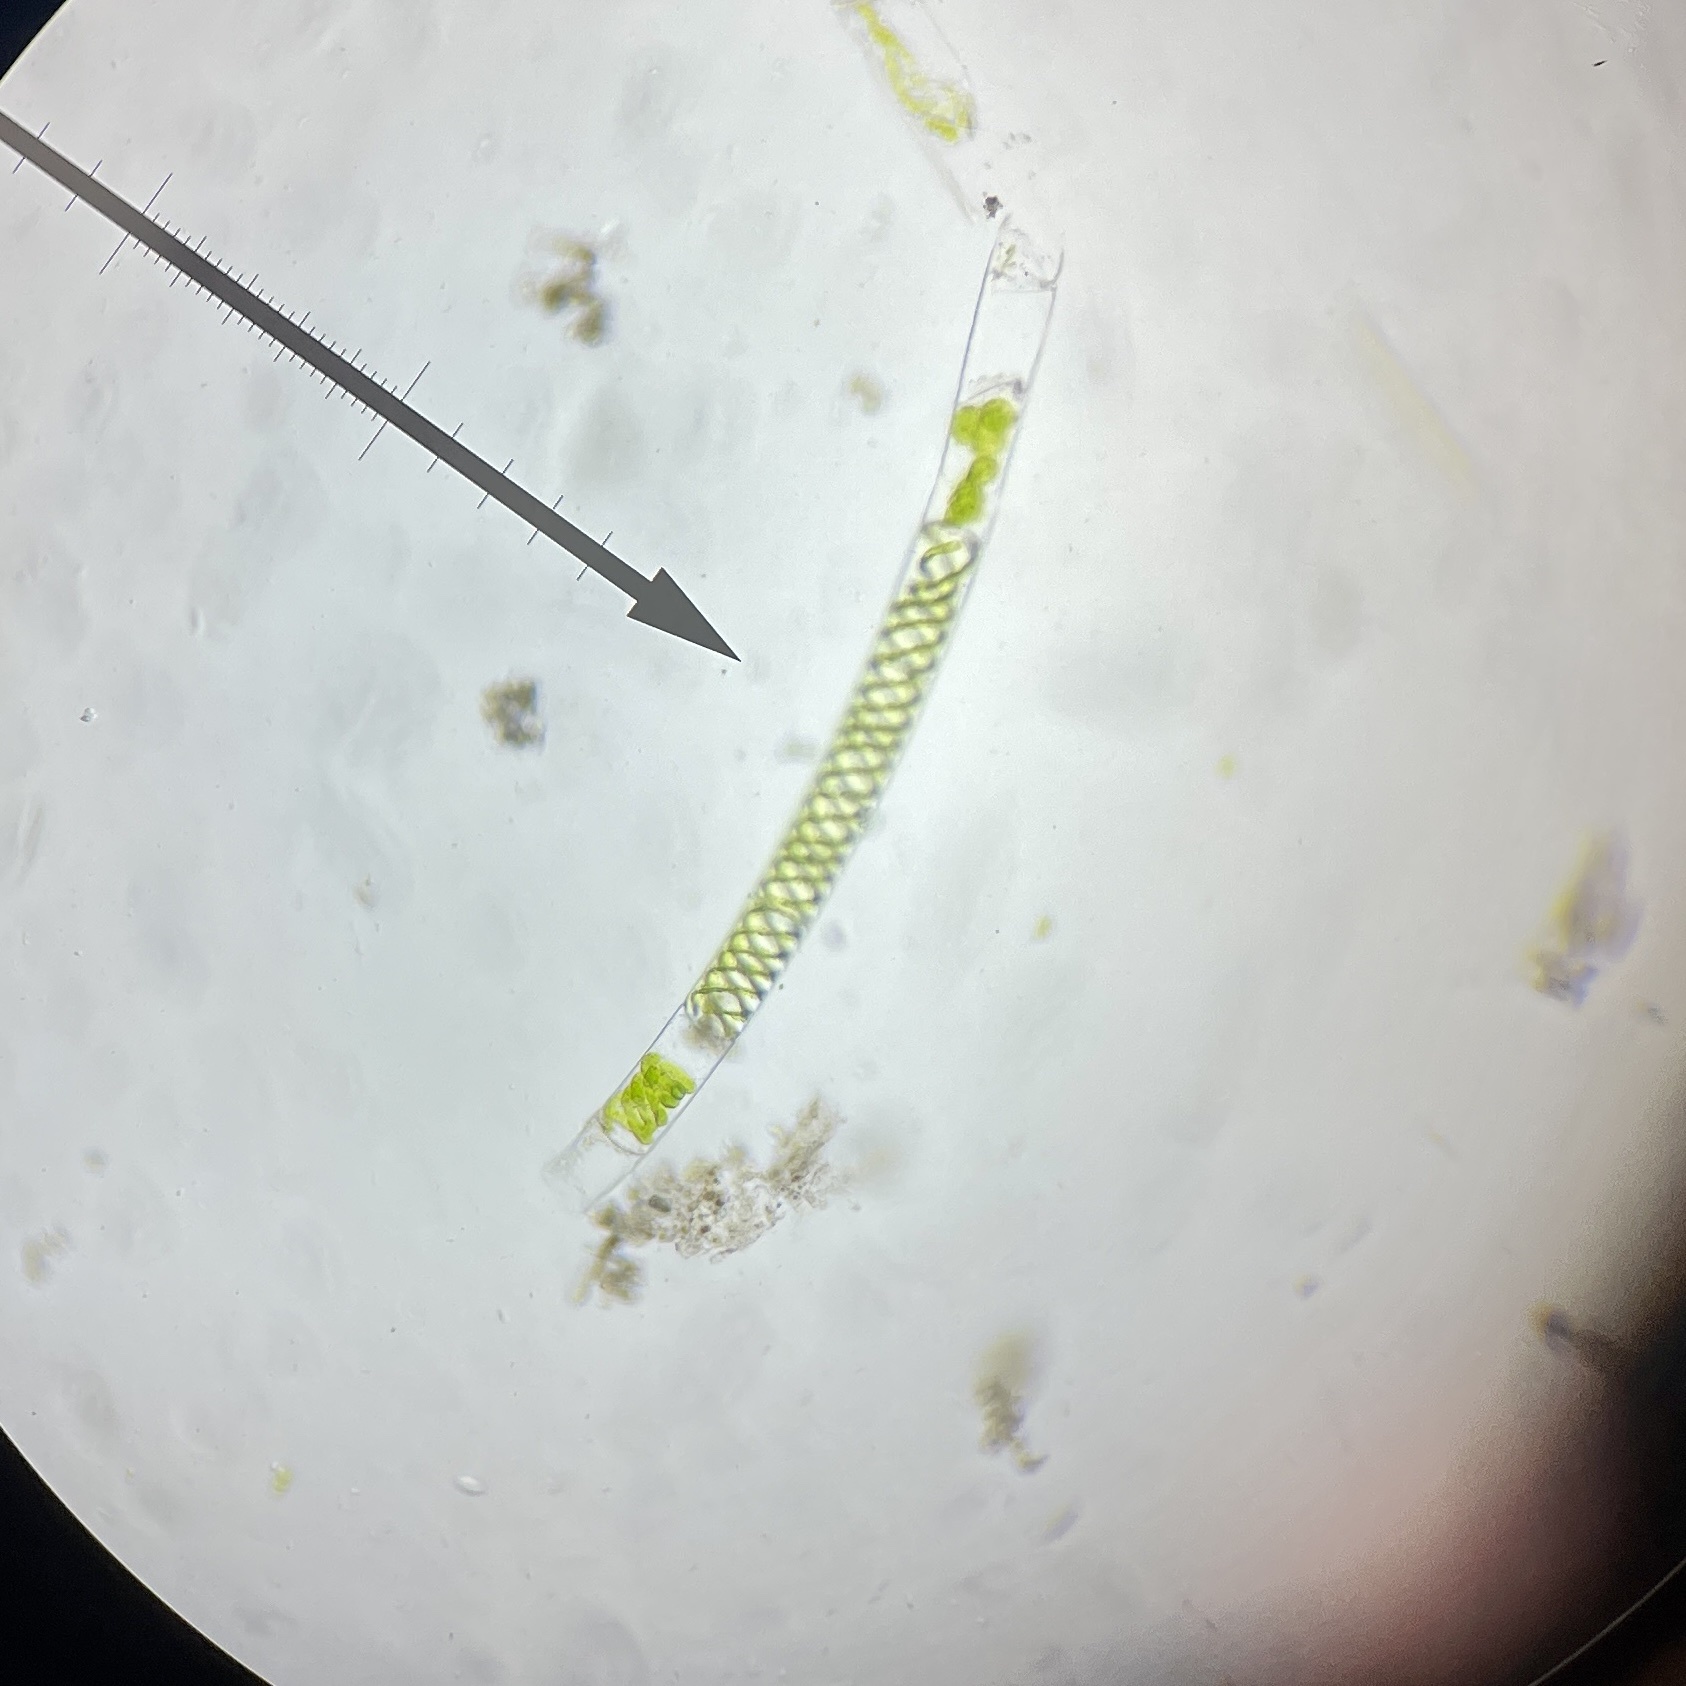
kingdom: Plantae
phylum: Charophyta
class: Zygnematophyceae
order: Zygnematales
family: Zygnemataceae
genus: Spirogyra
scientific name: Spirogyra
